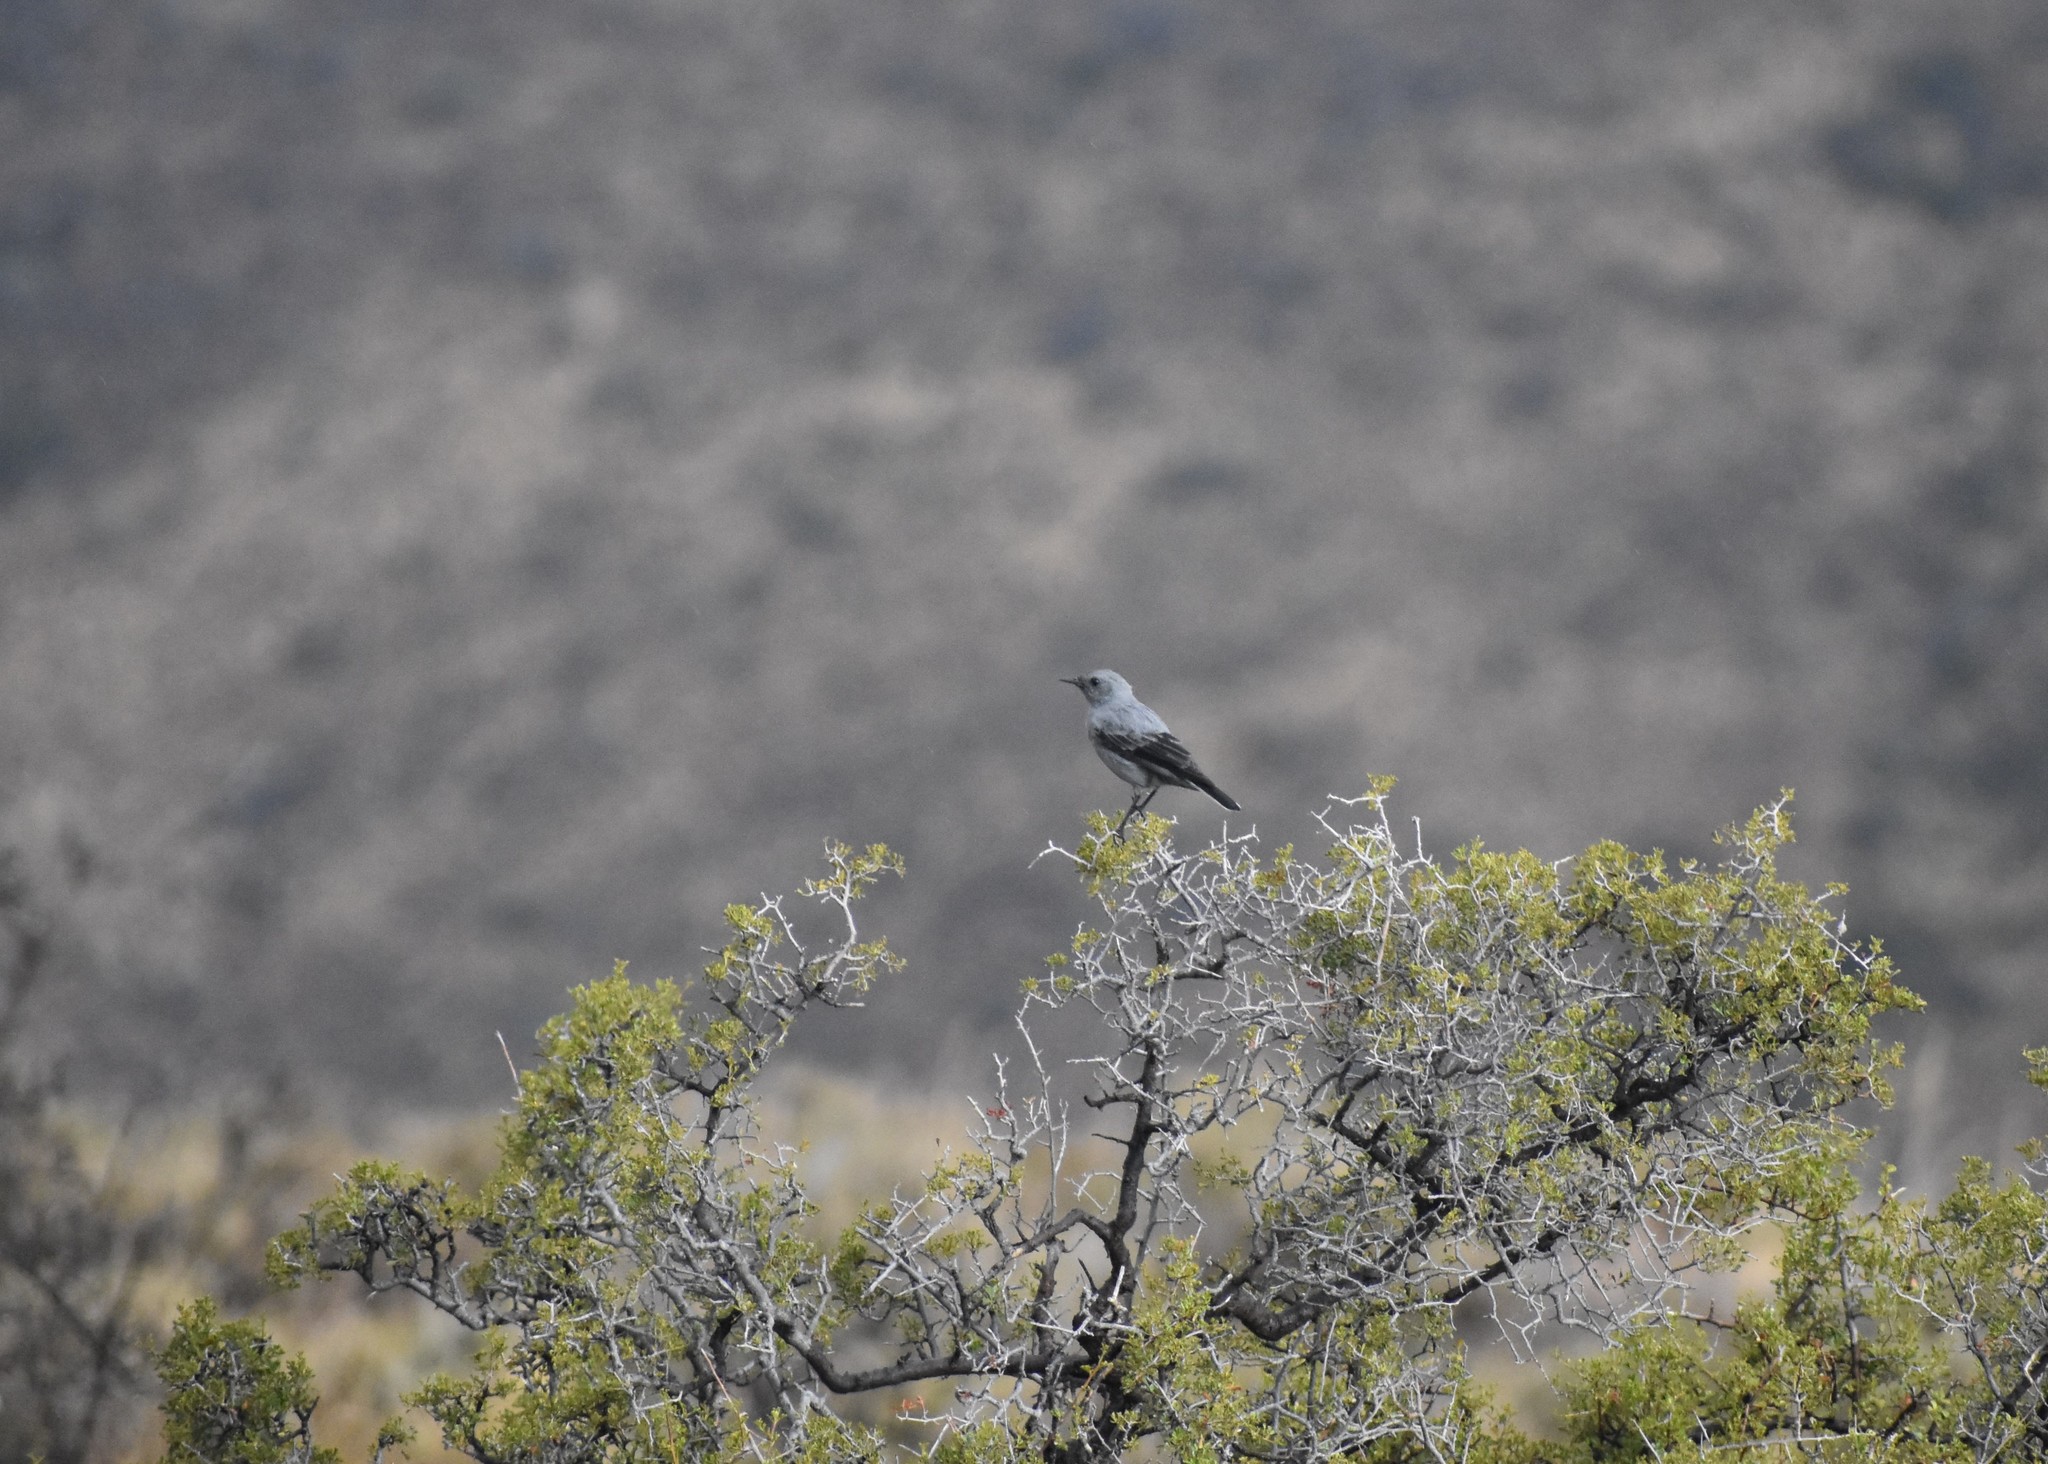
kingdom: Animalia
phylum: Chordata
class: Aves
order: Passeriformes
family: Muscicapidae
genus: Oenanthe
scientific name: Oenanthe monticola
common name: Mountain wheatear
